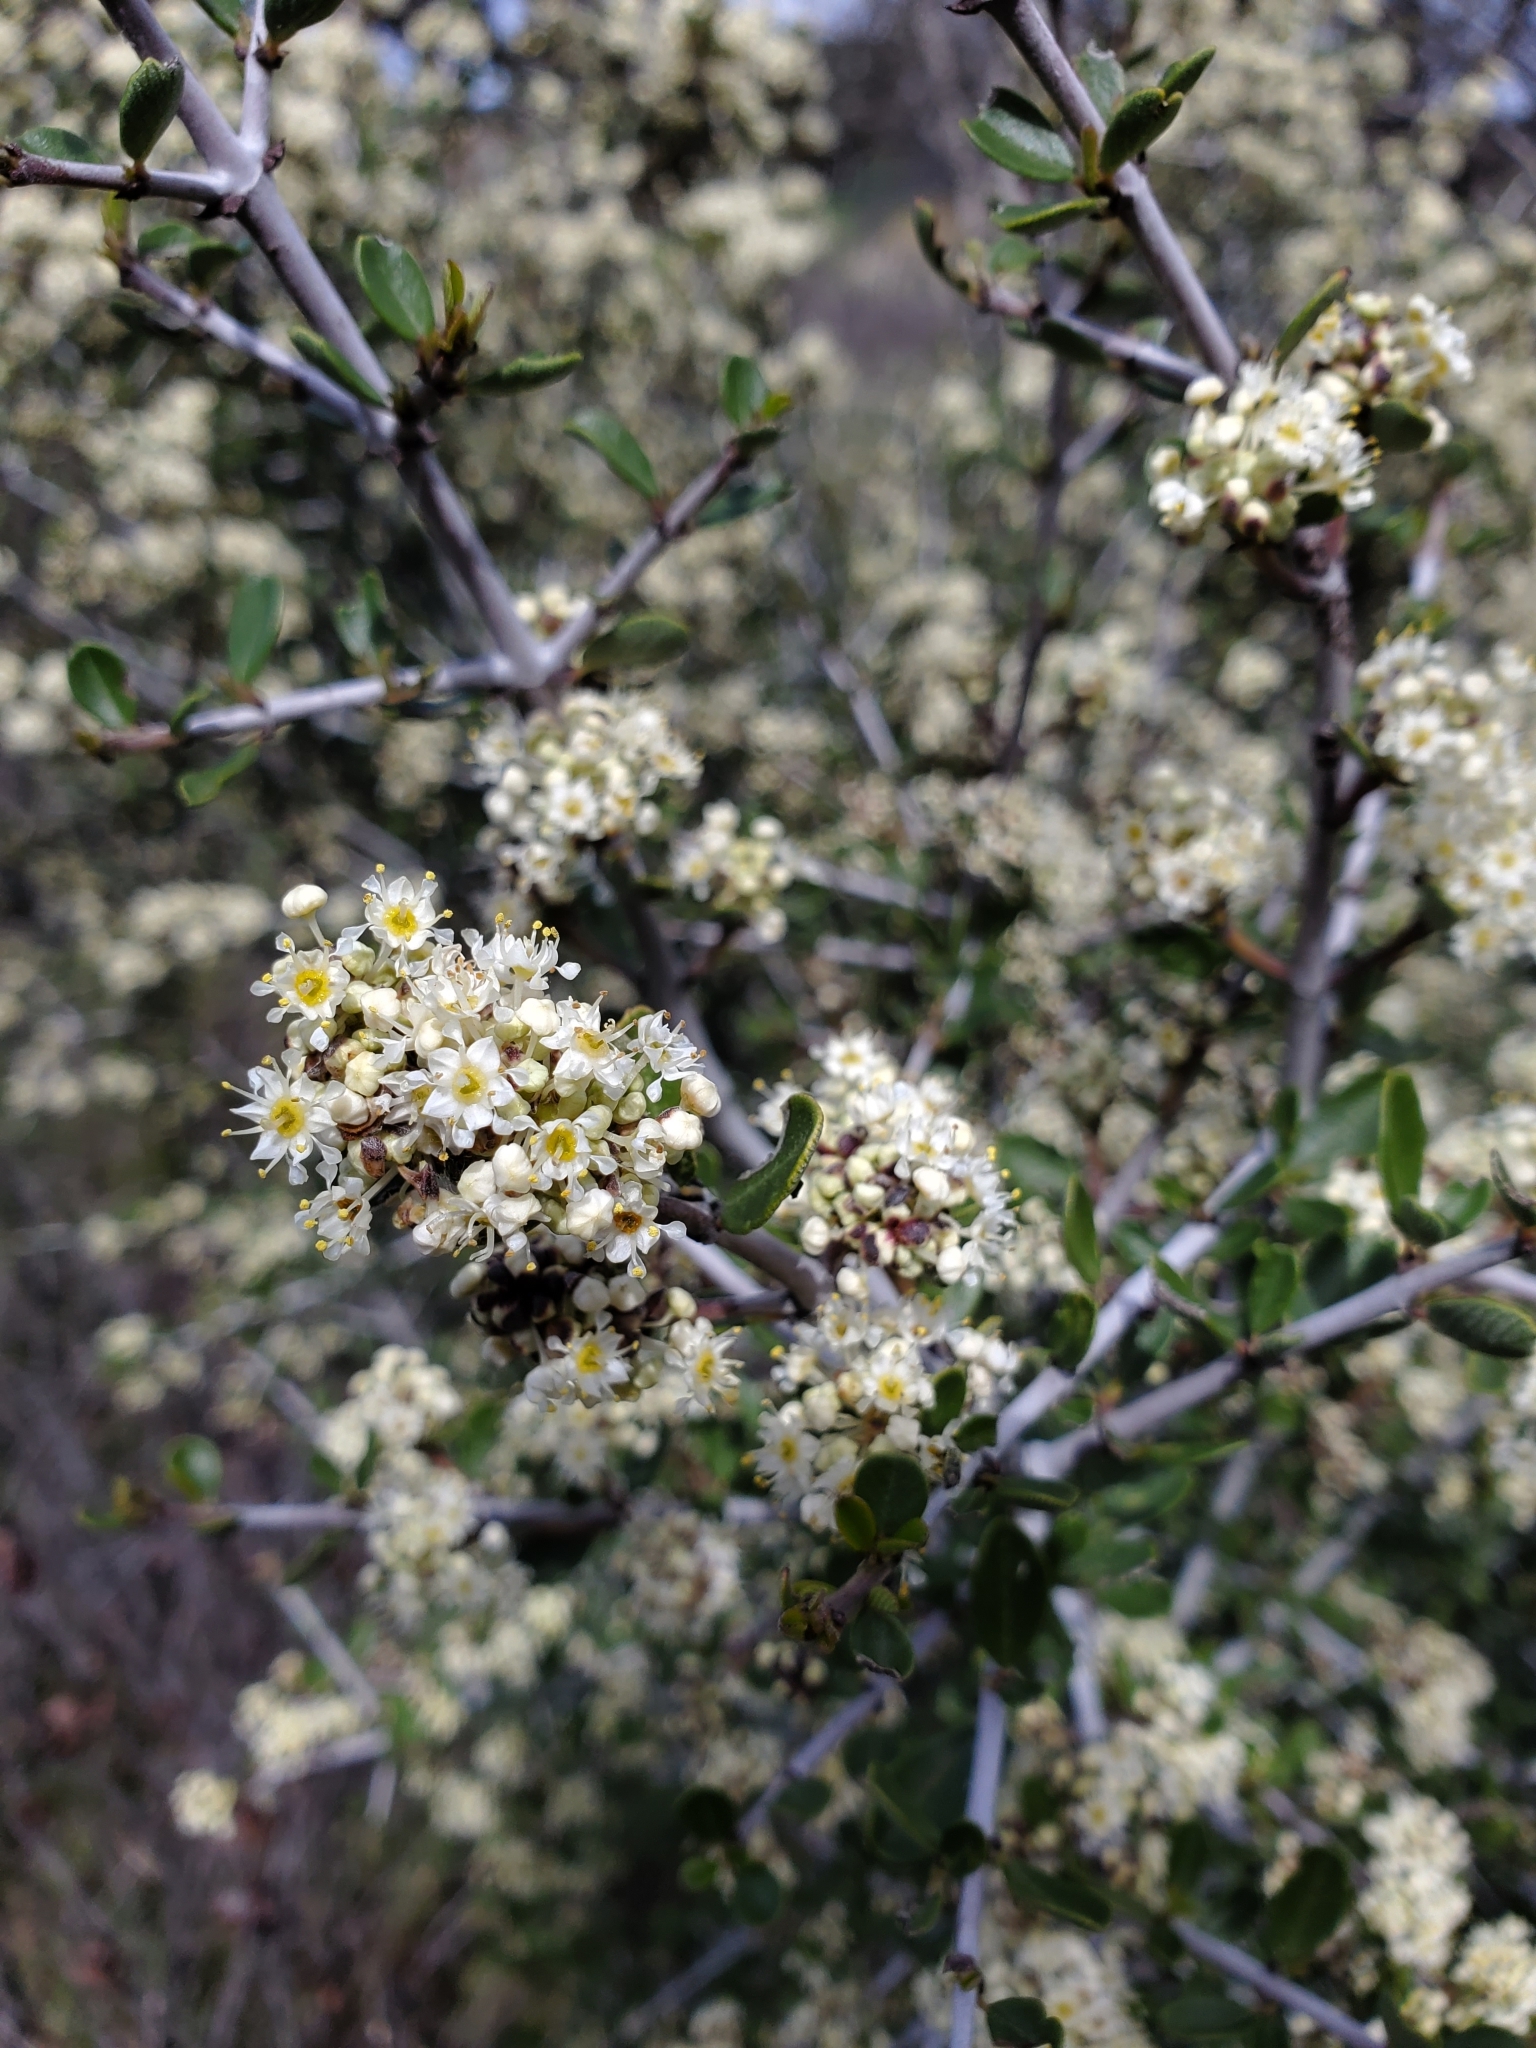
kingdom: Plantae
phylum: Tracheophyta
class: Magnoliopsida
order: Rosales
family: Rhamnaceae
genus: Ceanothus
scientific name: Ceanothus cuneatus
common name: Cuneate ceanothus
